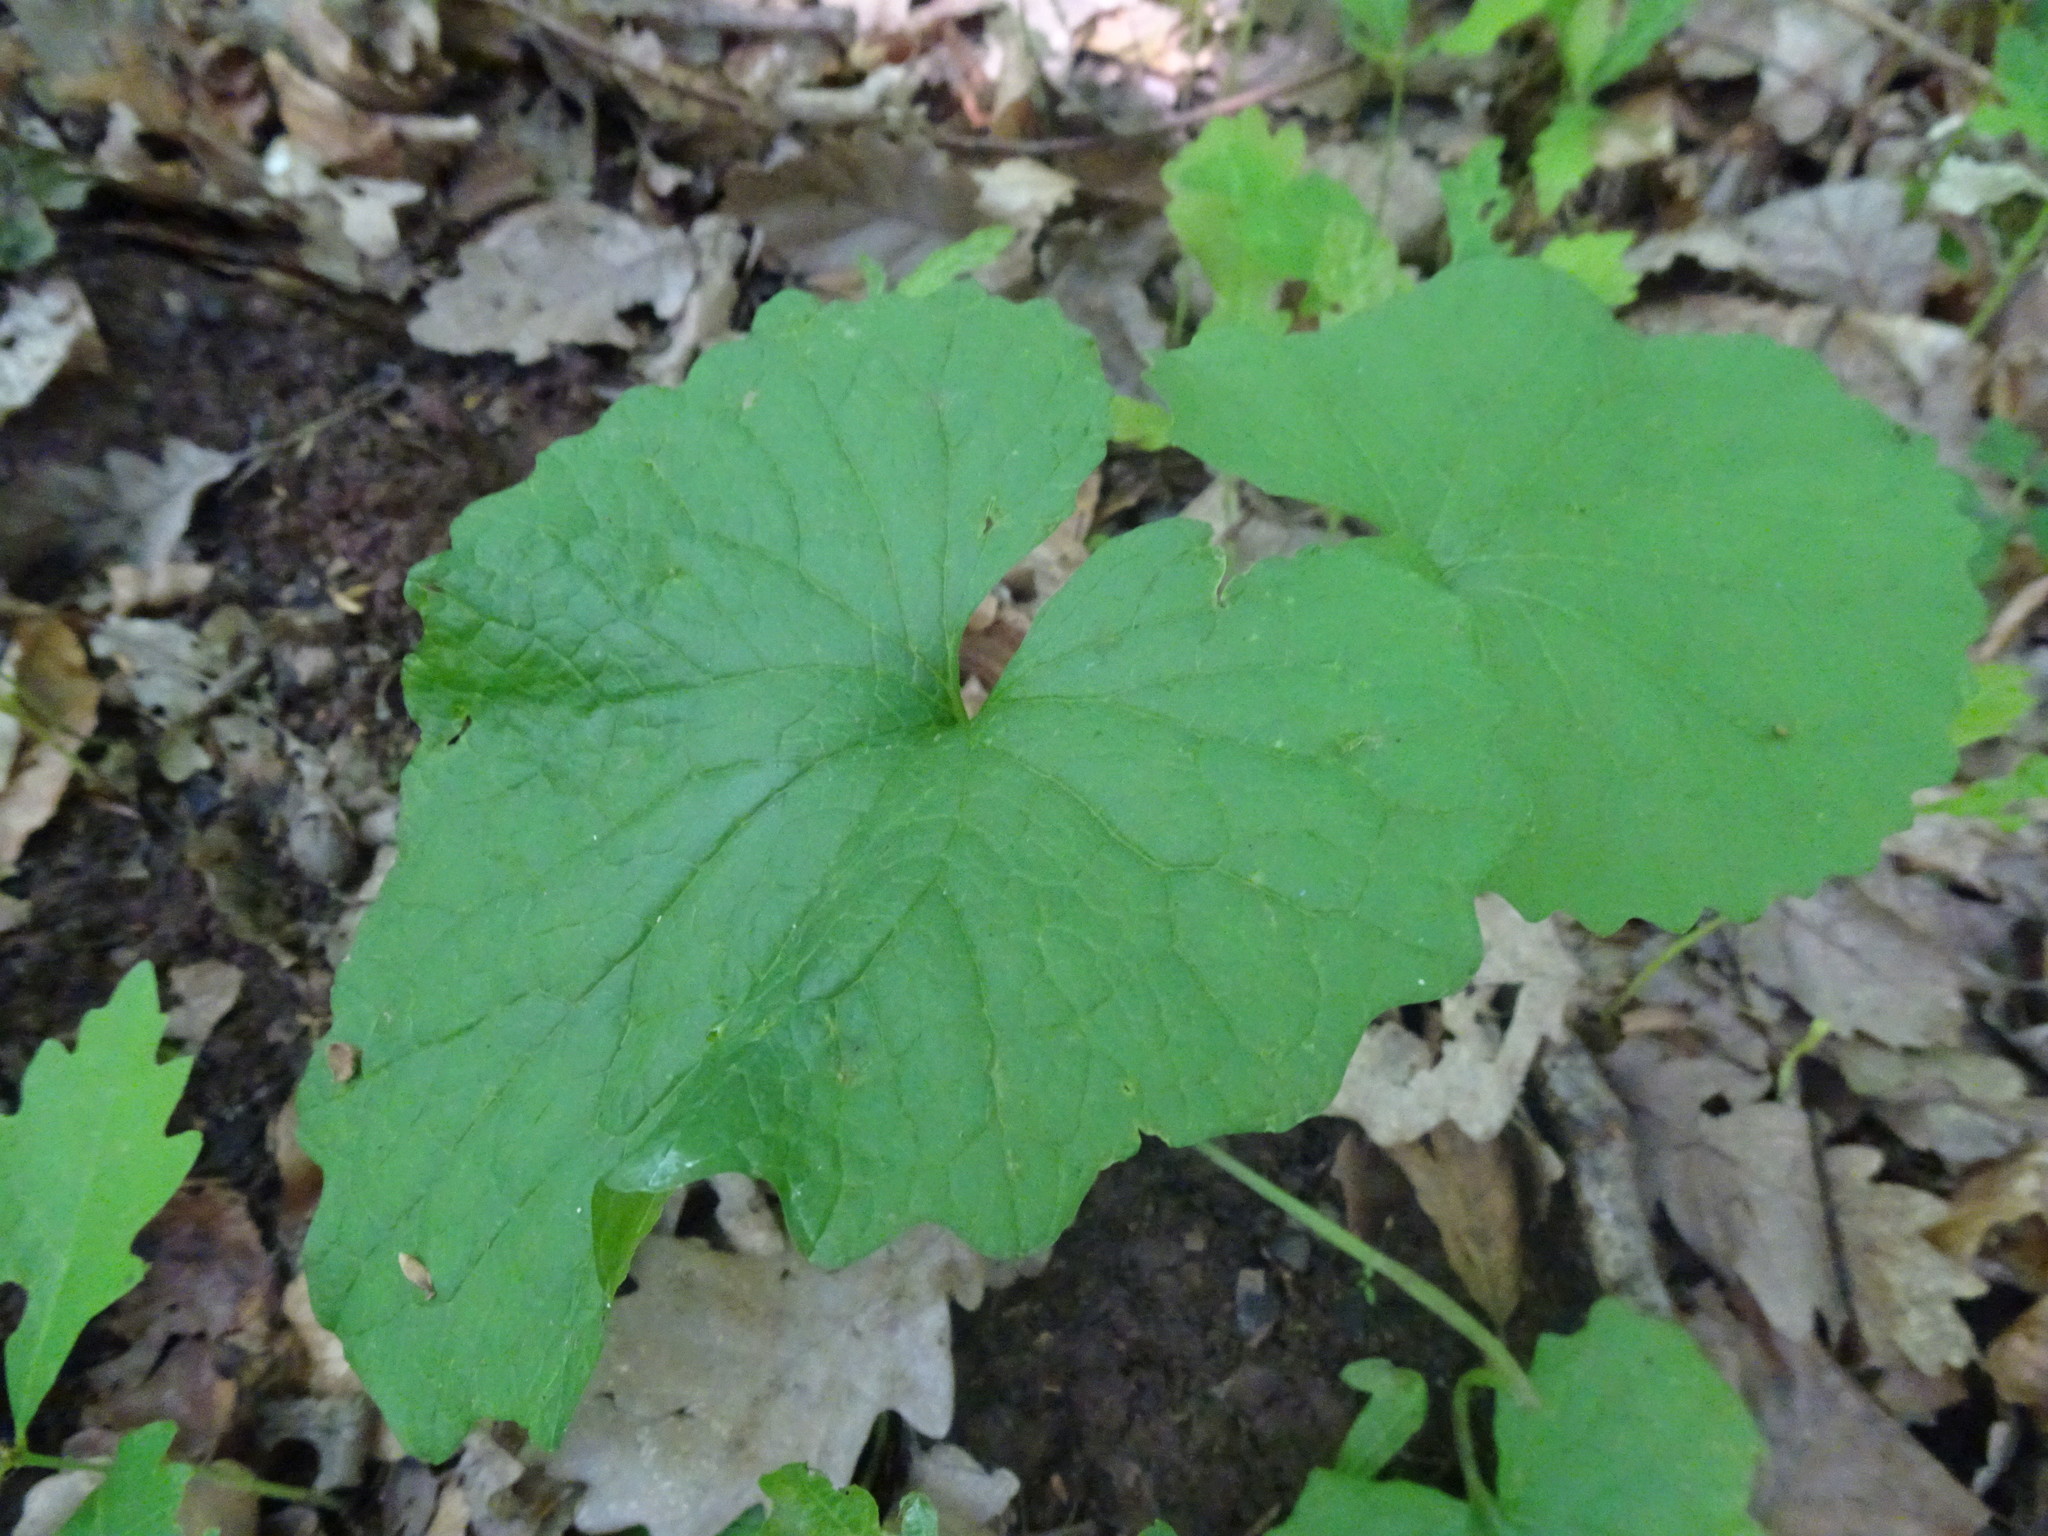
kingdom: Plantae
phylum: Tracheophyta
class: Magnoliopsida
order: Brassicales
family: Brassicaceae
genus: Alliaria
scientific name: Alliaria petiolata
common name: Garlic mustard
